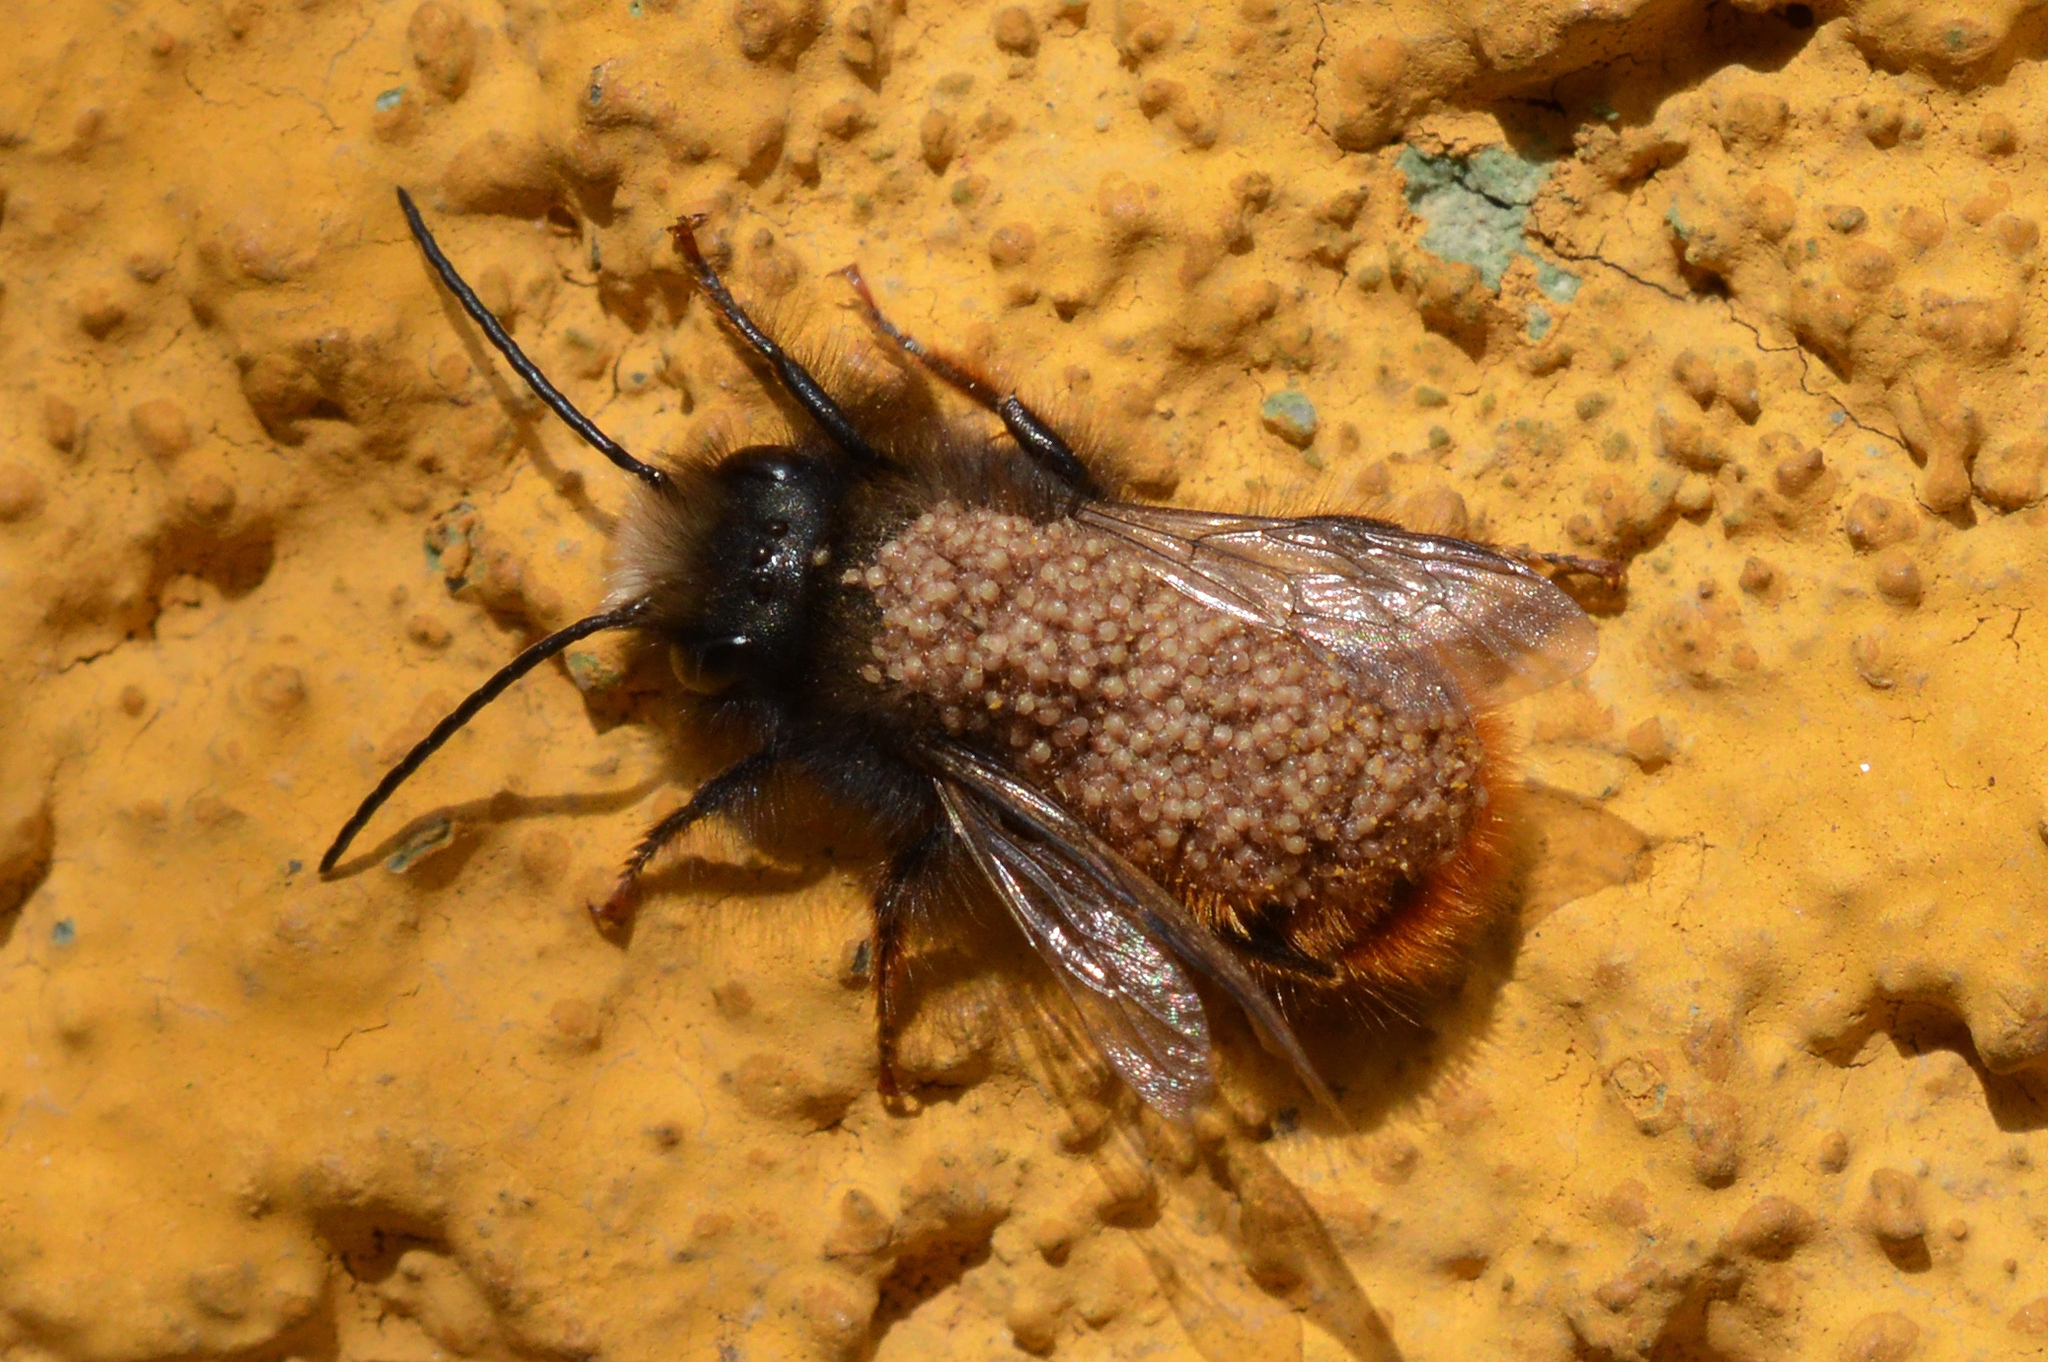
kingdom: Animalia
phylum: Arthropoda
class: Insecta
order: Hymenoptera
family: Megachilidae
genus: Osmia
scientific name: Osmia cornuta
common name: Mason bee
